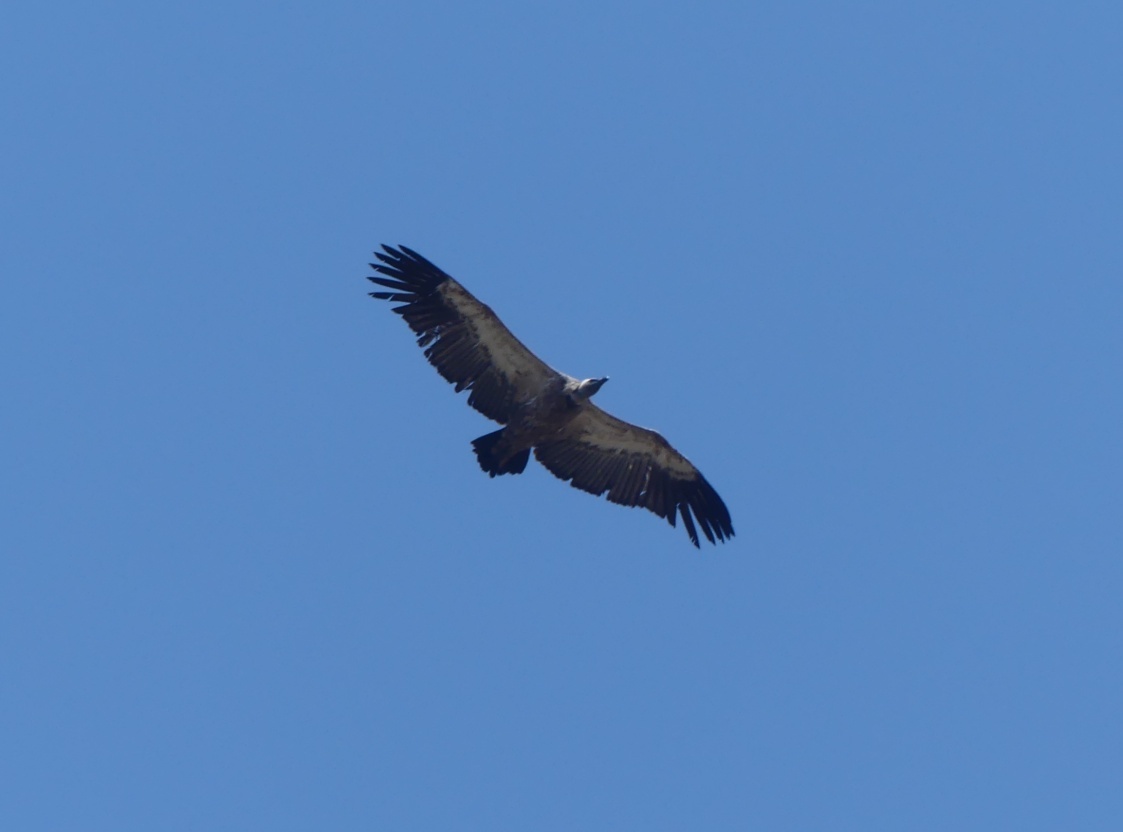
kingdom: Animalia
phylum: Chordata
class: Aves
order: Accipitriformes
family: Accipitridae
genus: Gyps
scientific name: Gyps coprotheres
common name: Cape vulture
